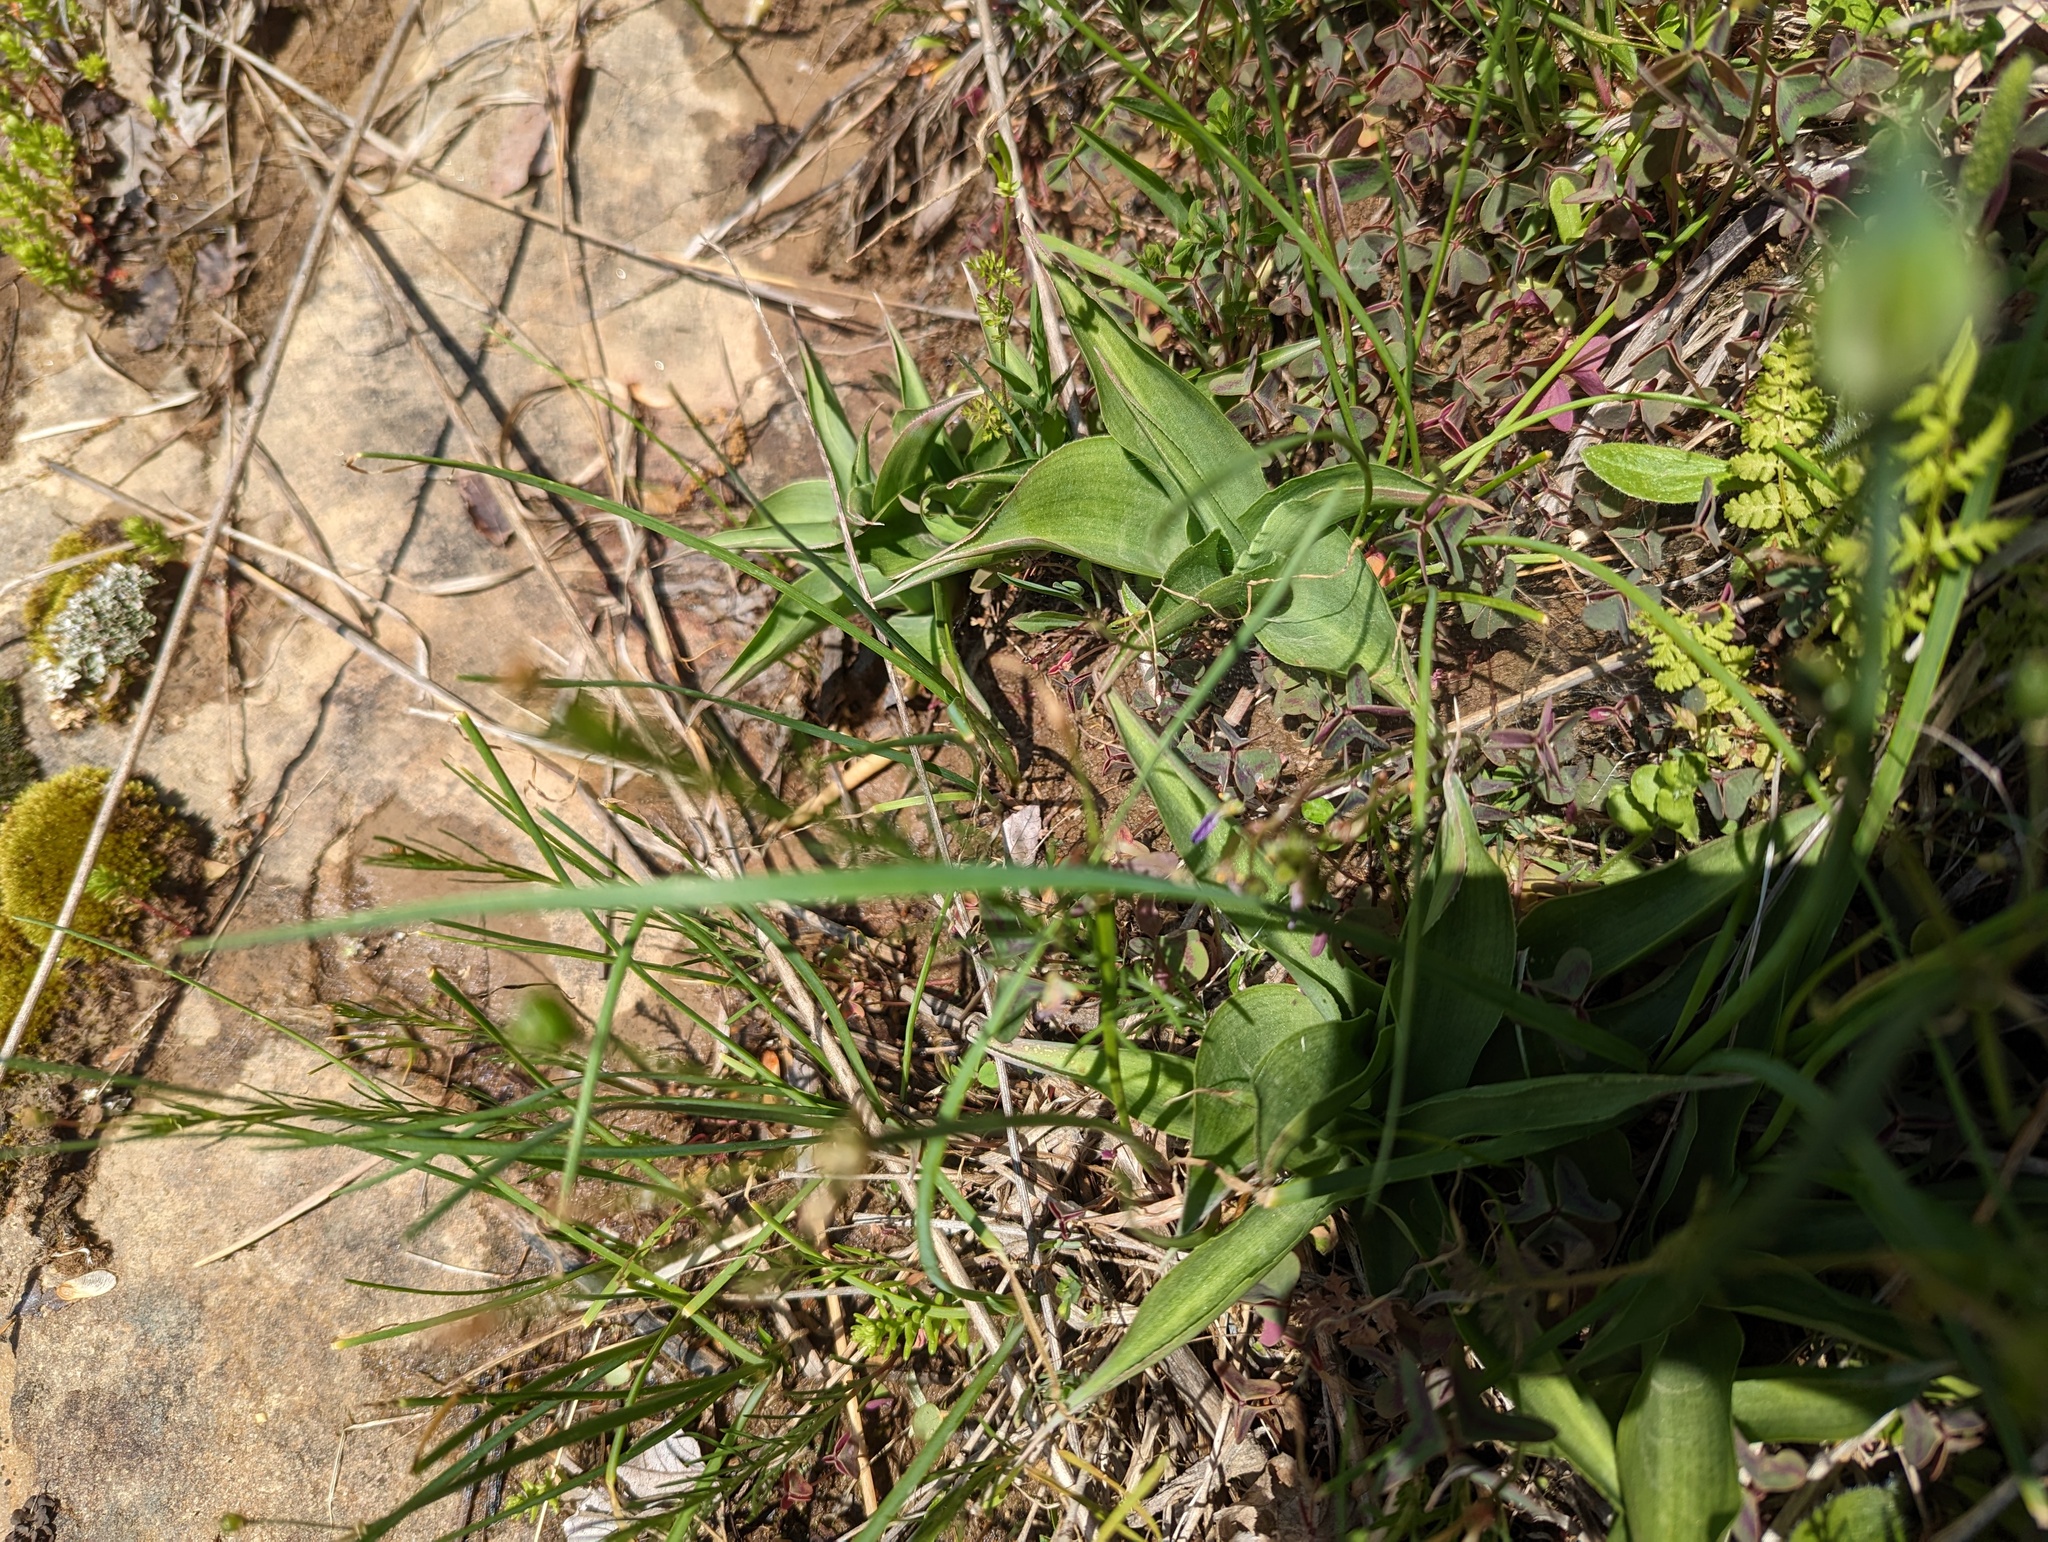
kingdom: Plantae
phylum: Tracheophyta
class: Liliopsida
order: Asparagales
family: Asparagaceae
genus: Agave
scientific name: Agave virginica
